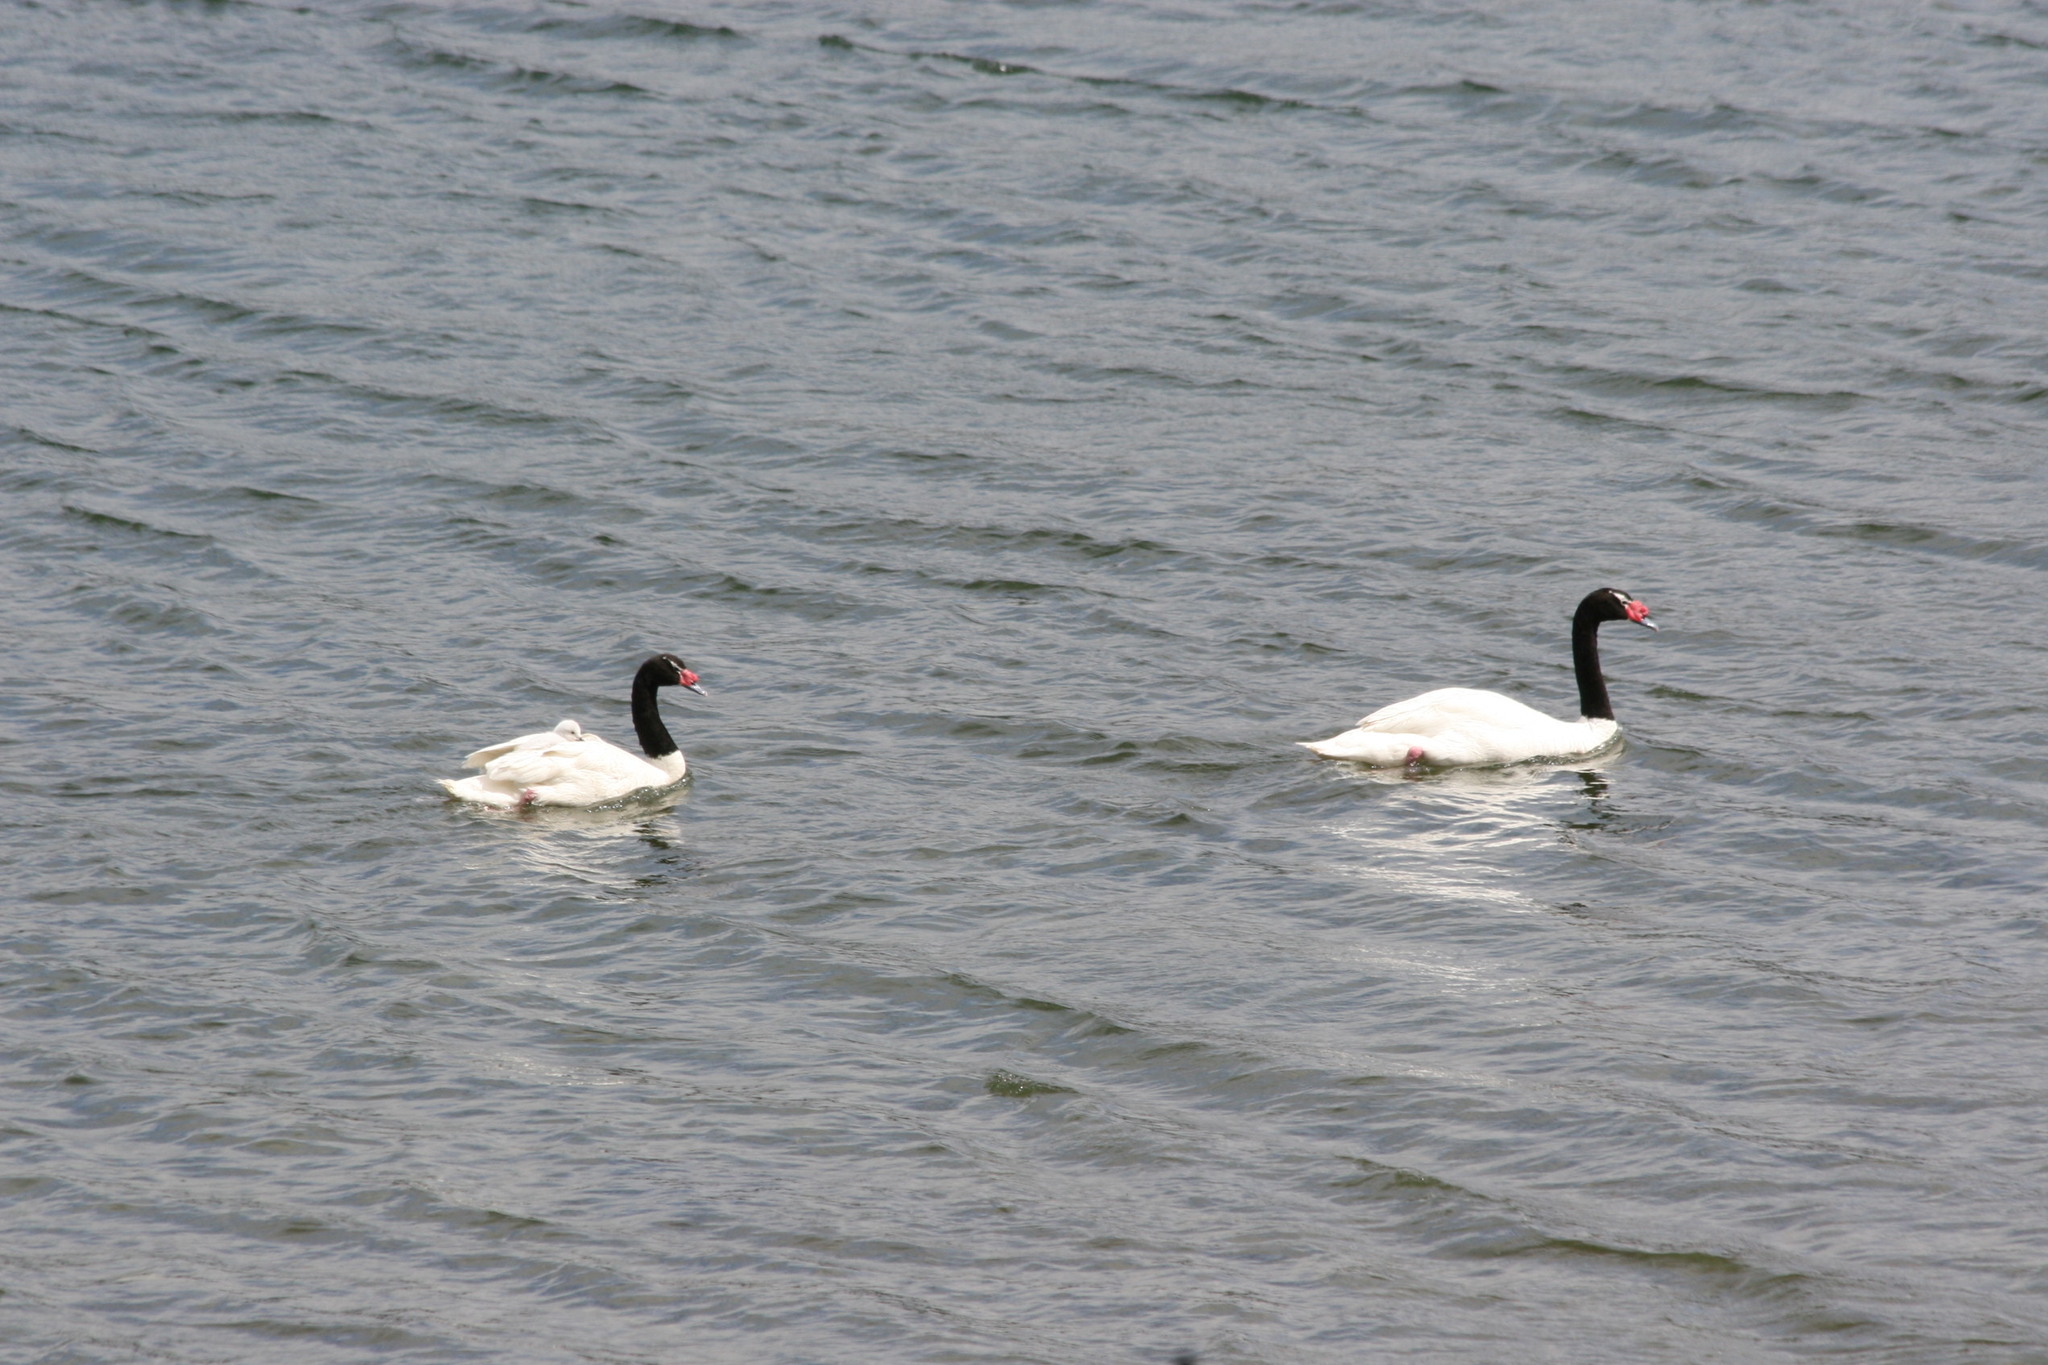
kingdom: Animalia
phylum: Chordata
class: Aves
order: Anseriformes
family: Anatidae
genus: Cygnus
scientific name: Cygnus melancoryphus
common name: Black-necked swan
